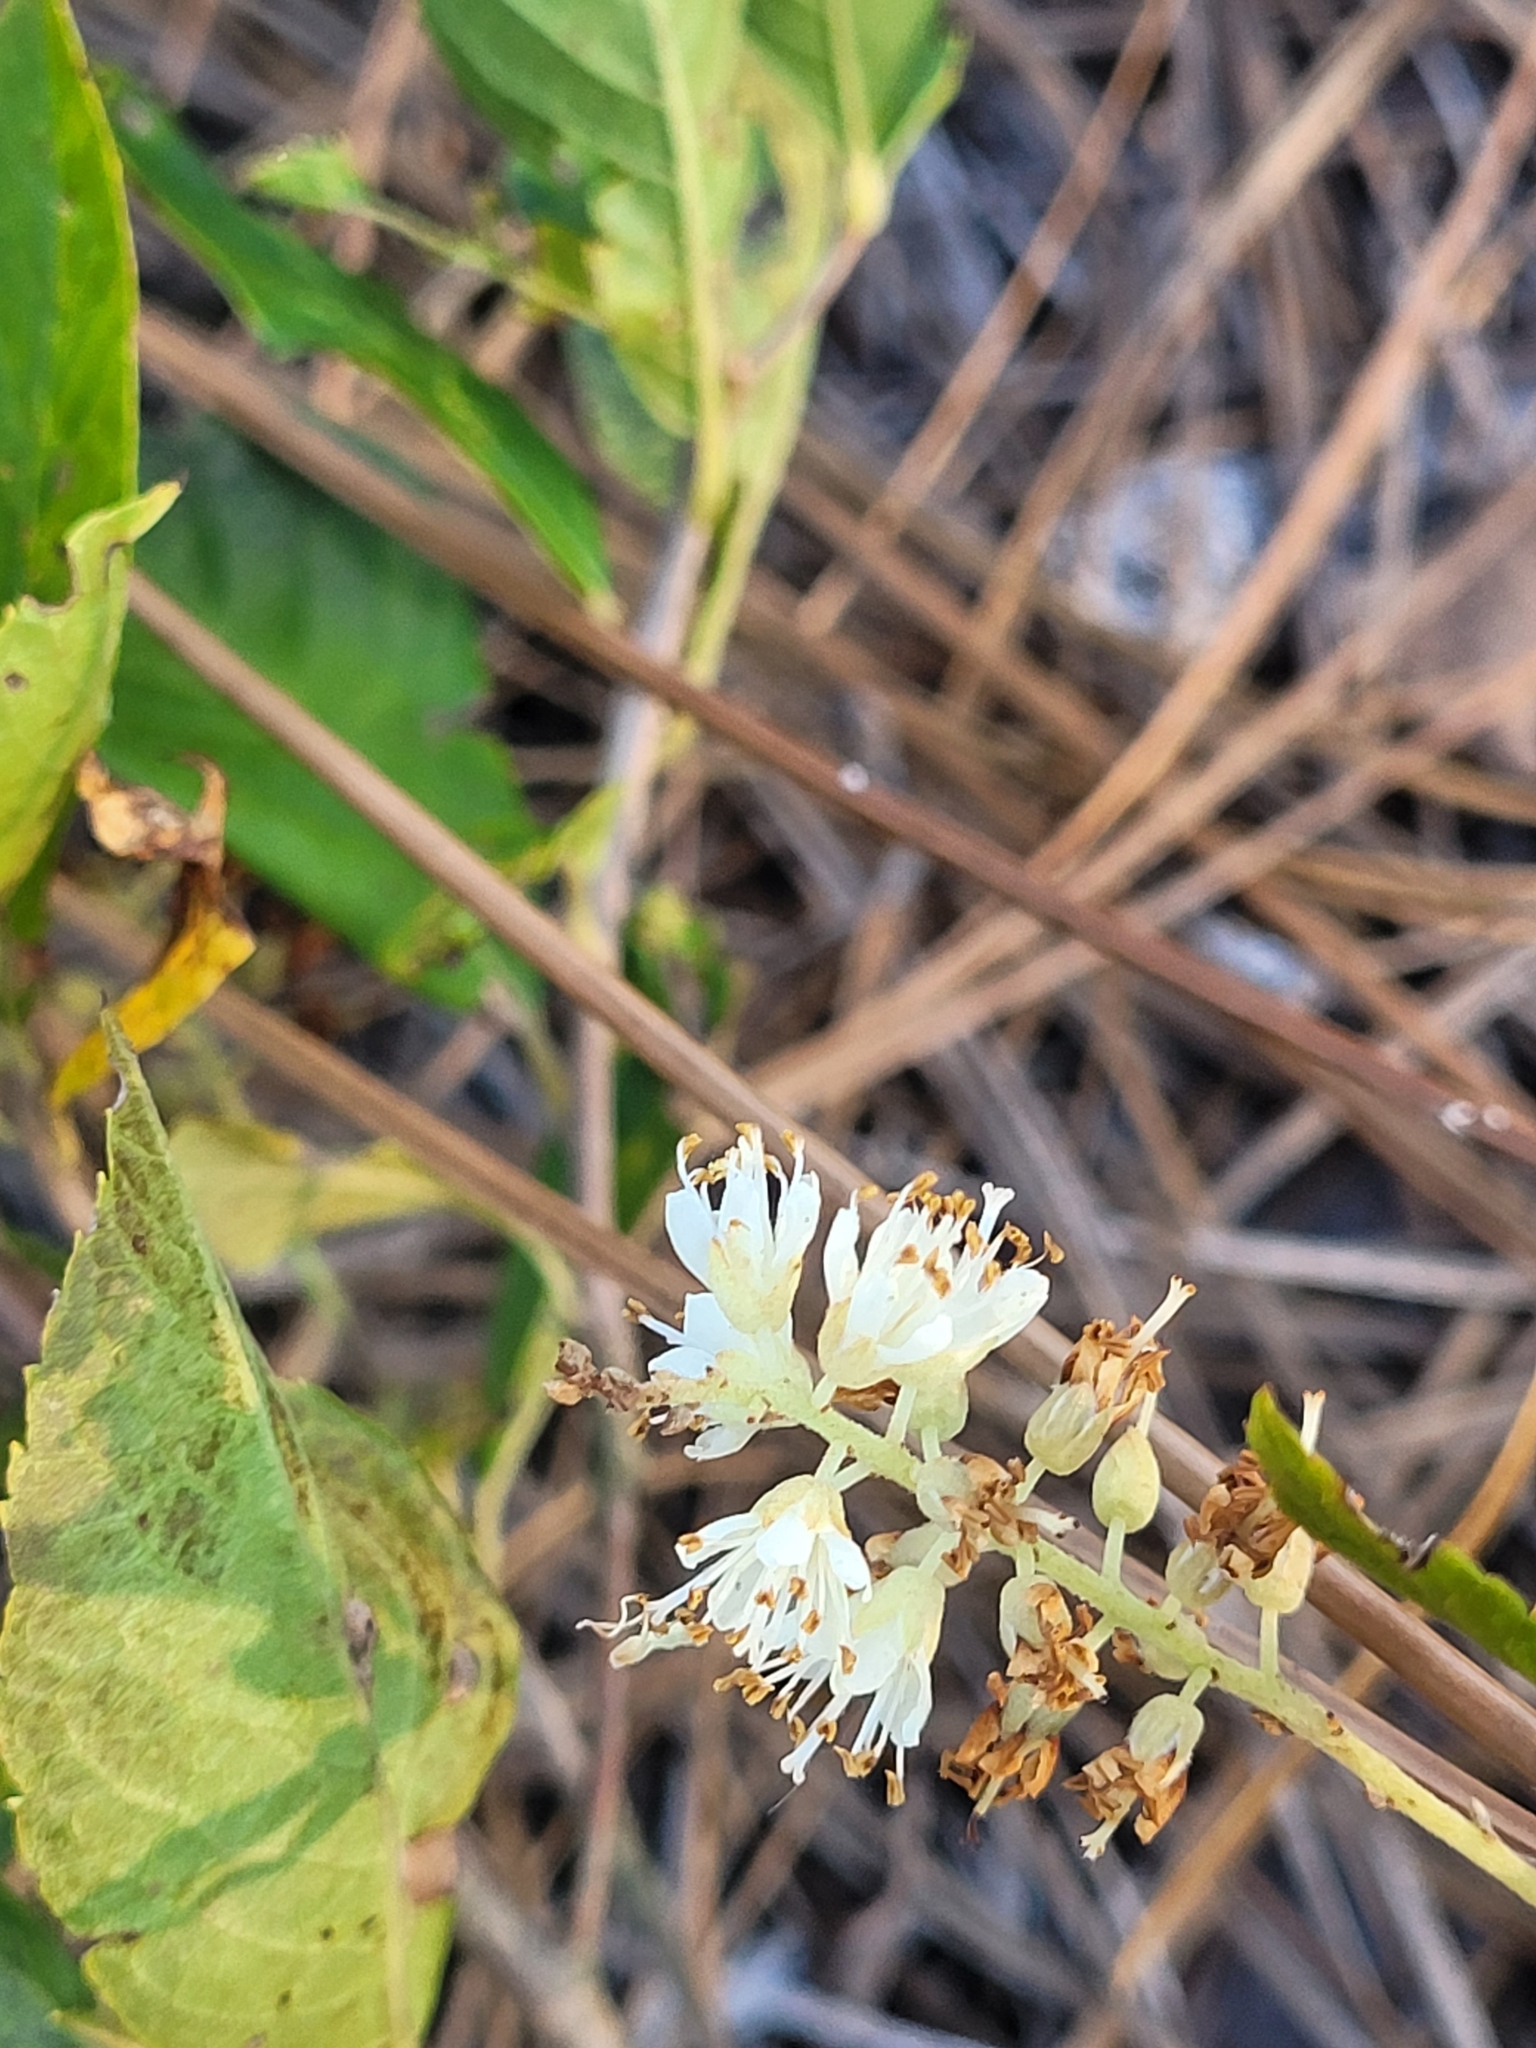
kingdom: Plantae
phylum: Tracheophyta
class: Magnoliopsida
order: Ericales
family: Clethraceae
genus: Clethra
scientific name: Clethra alnifolia
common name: Sweet pepperbush
